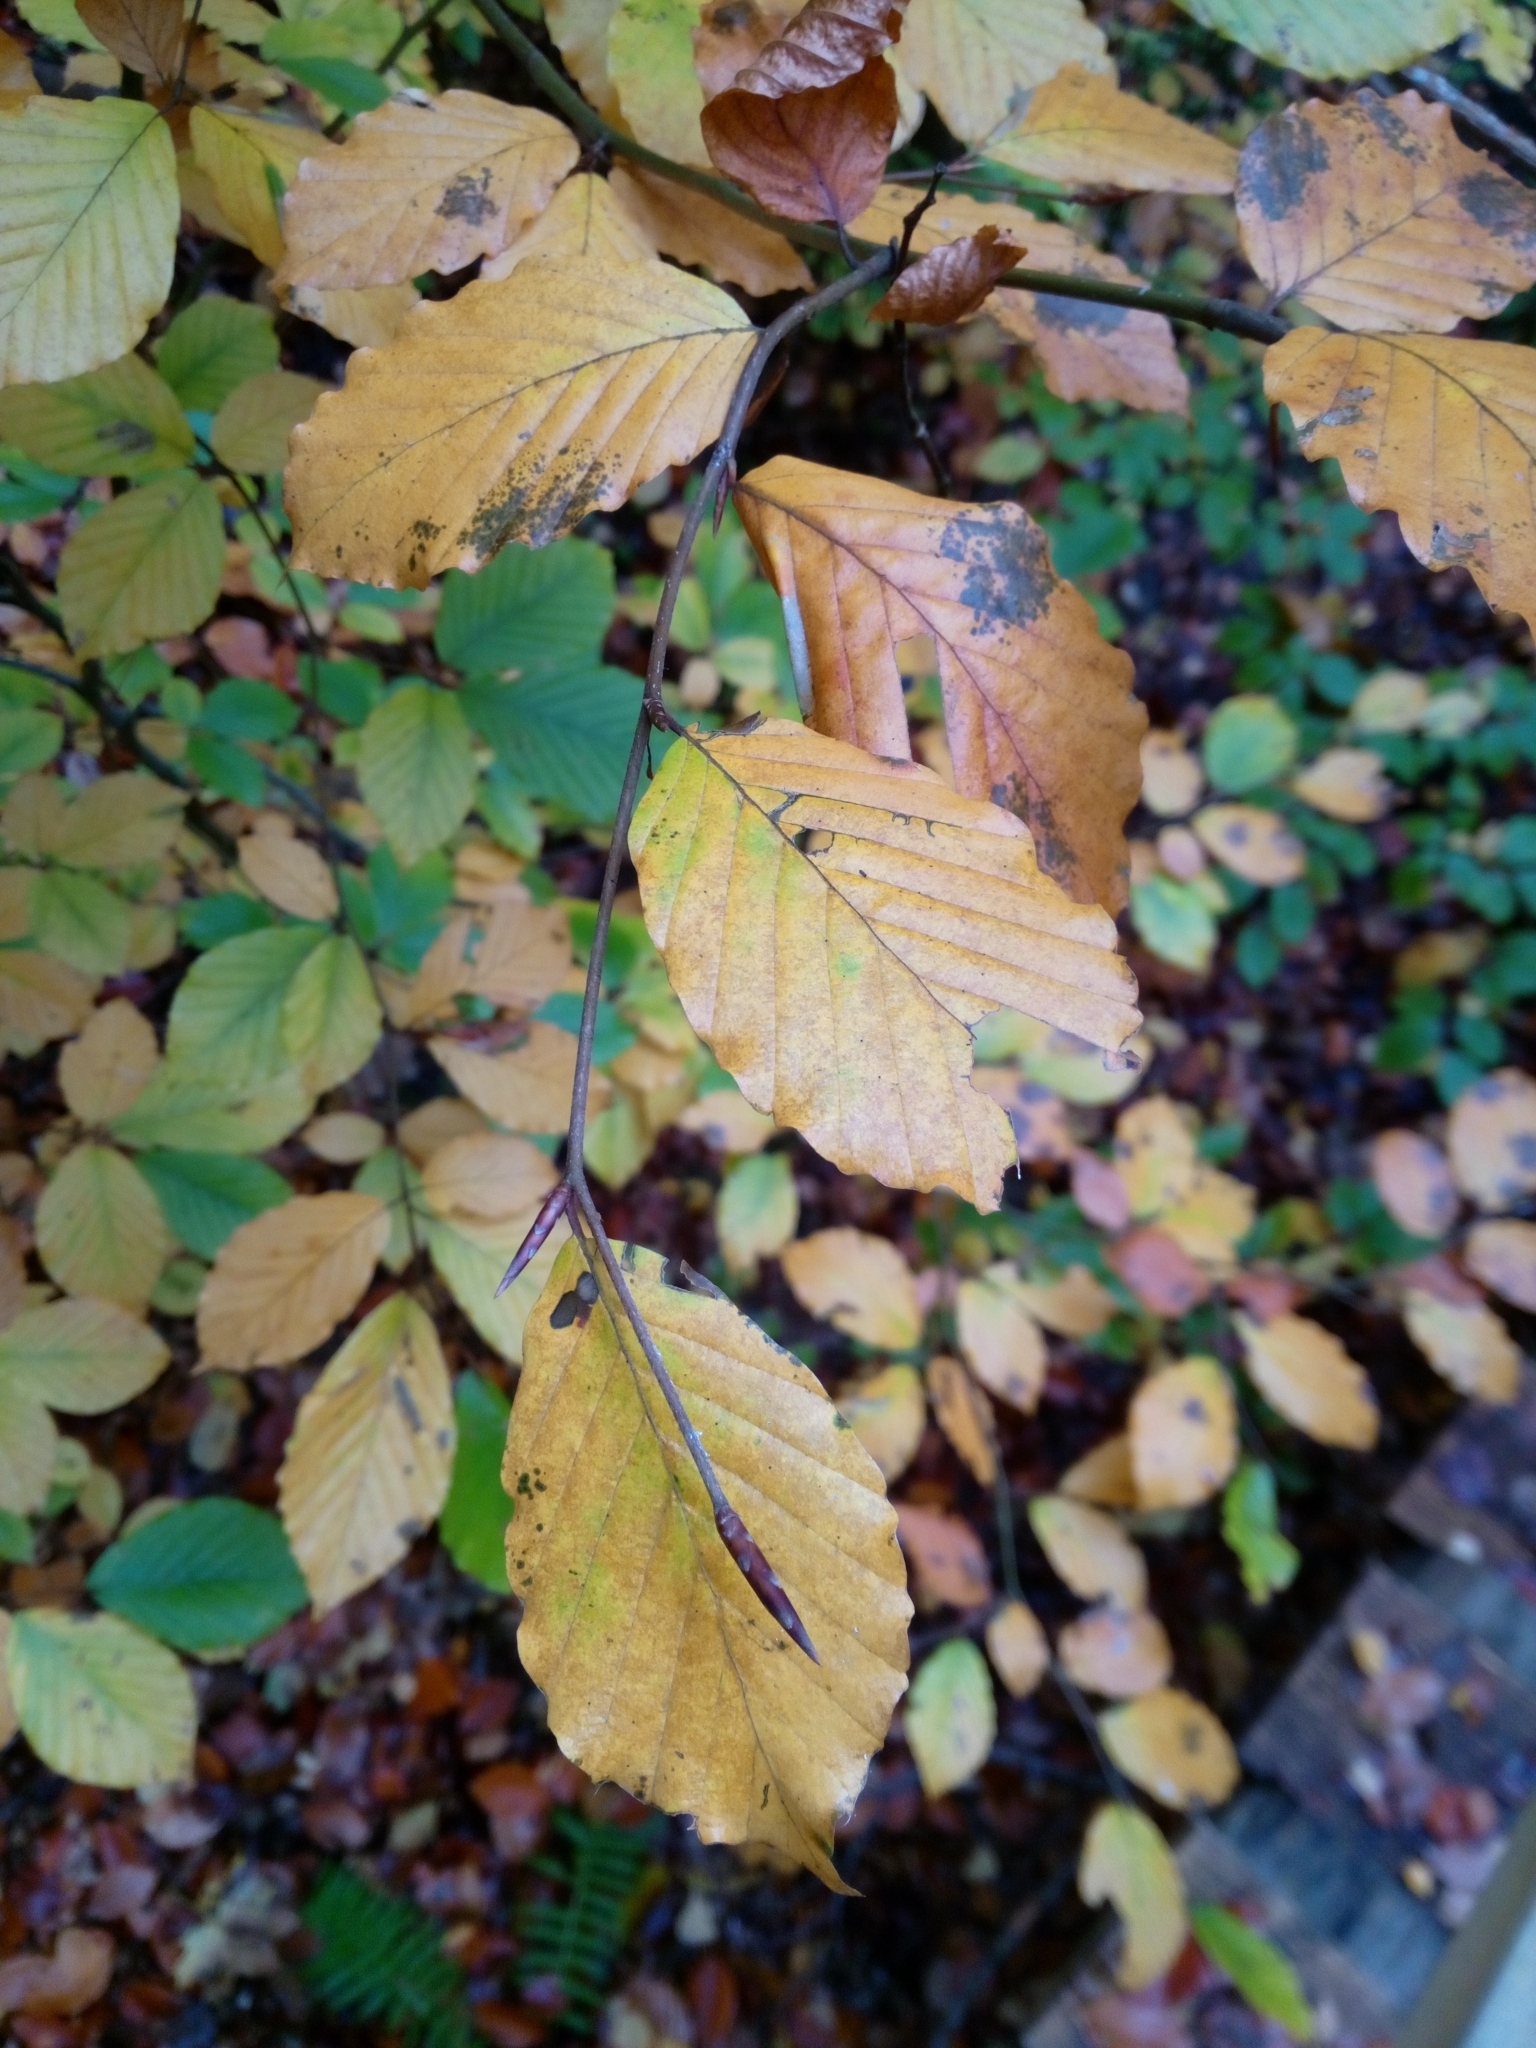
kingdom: Plantae
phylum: Tracheophyta
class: Magnoliopsida
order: Fagales
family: Fagaceae
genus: Fagus
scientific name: Fagus sylvatica
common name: Beech
